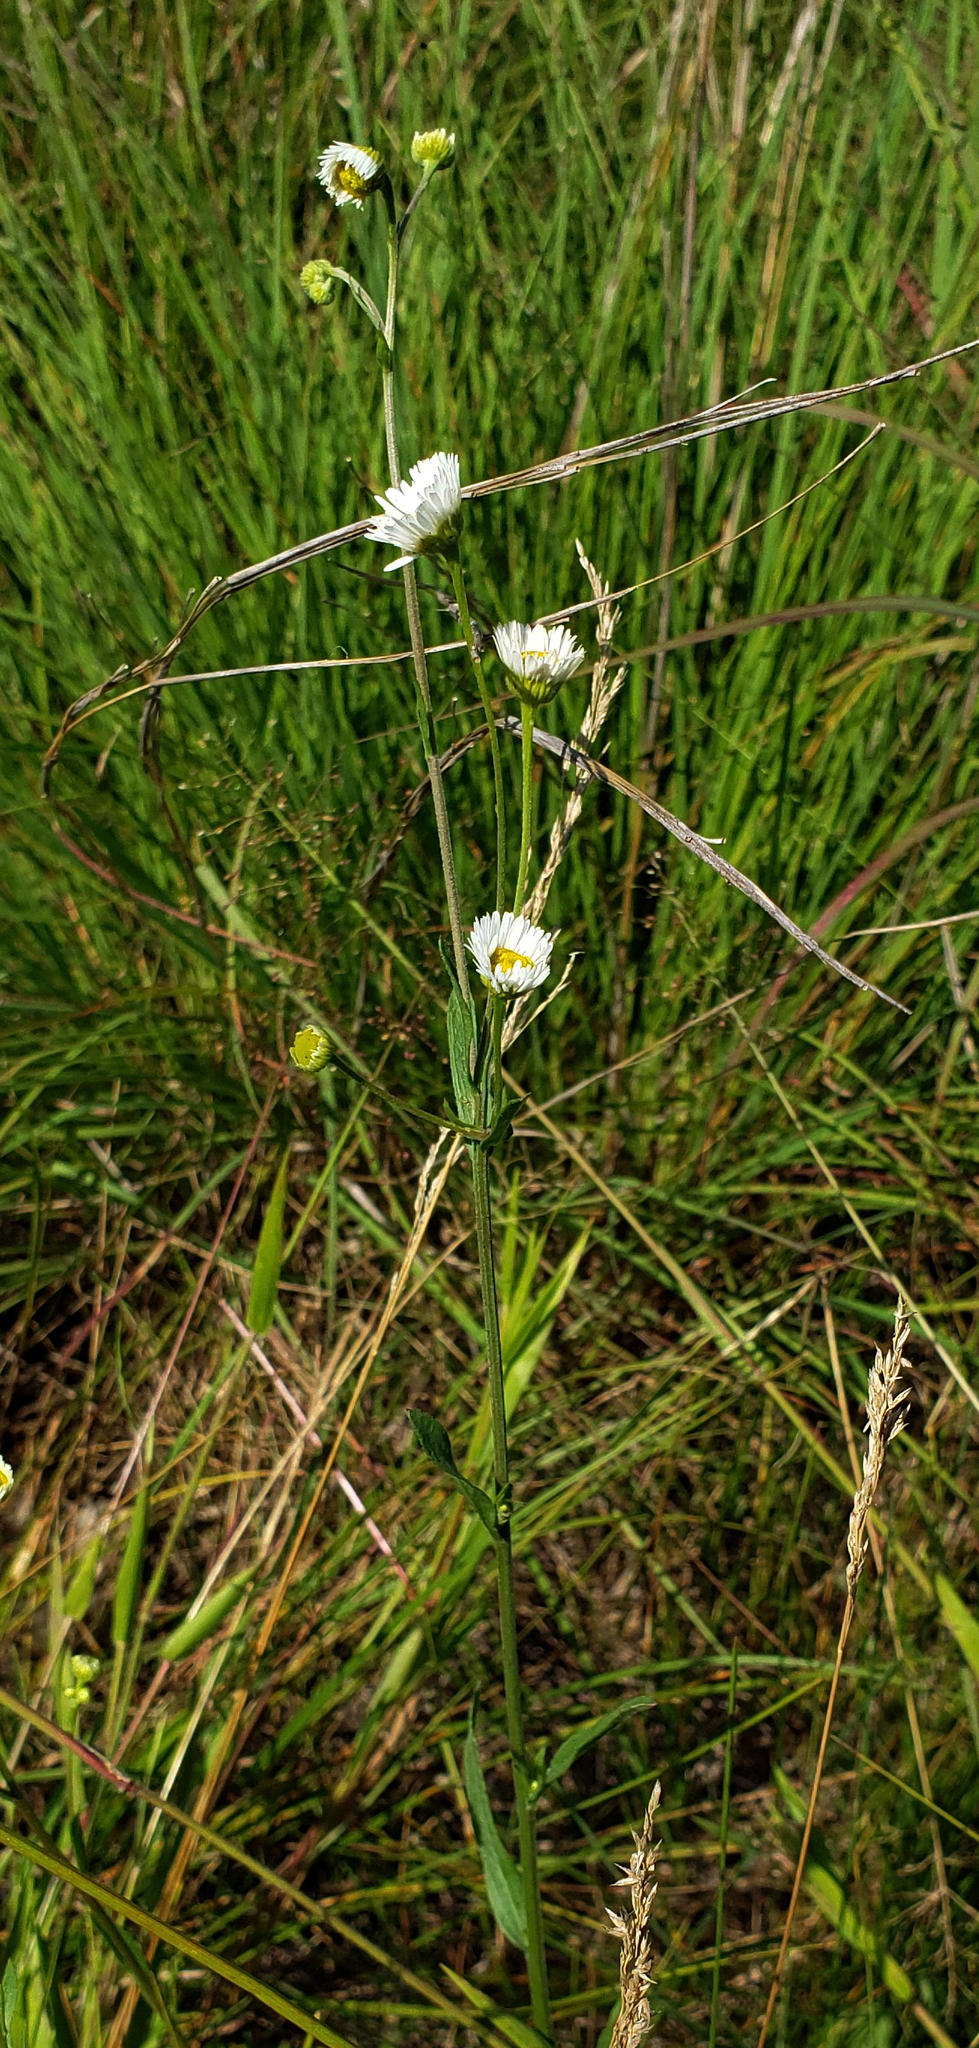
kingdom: Plantae
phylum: Tracheophyta
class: Magnoliopsida
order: Asterales
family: Asteraceae
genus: Erigeron
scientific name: Erigeron strigosus
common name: Common eastern fleabane
